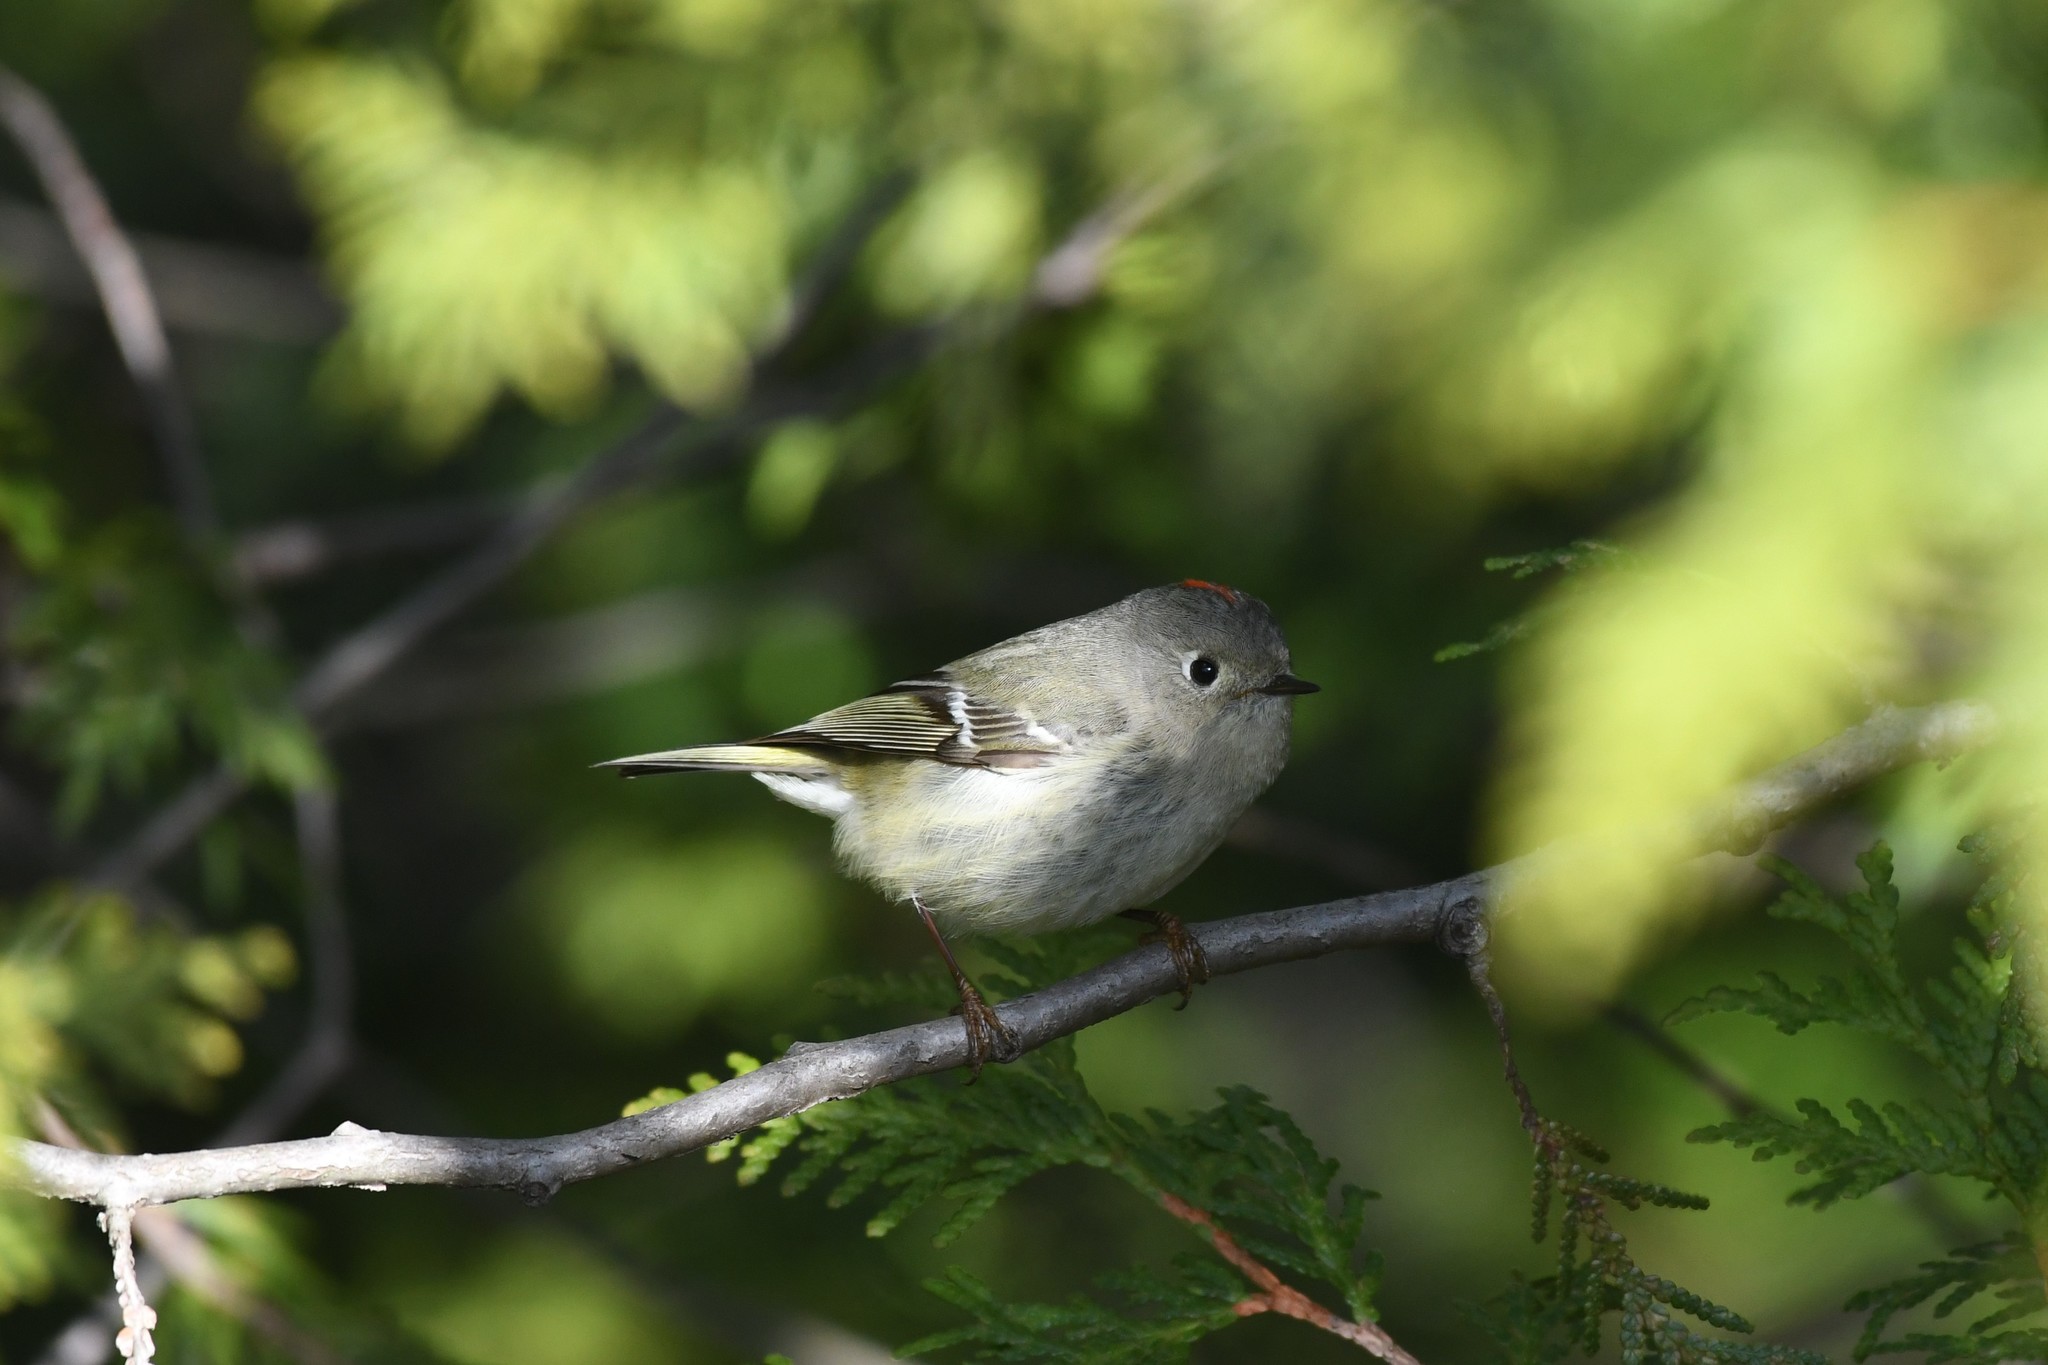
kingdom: Animalia
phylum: Chordata
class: Aves
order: Passeriformes
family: Regulidae
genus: Regulus
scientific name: Regulus calendula
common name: Ruby-crowned kinglet
